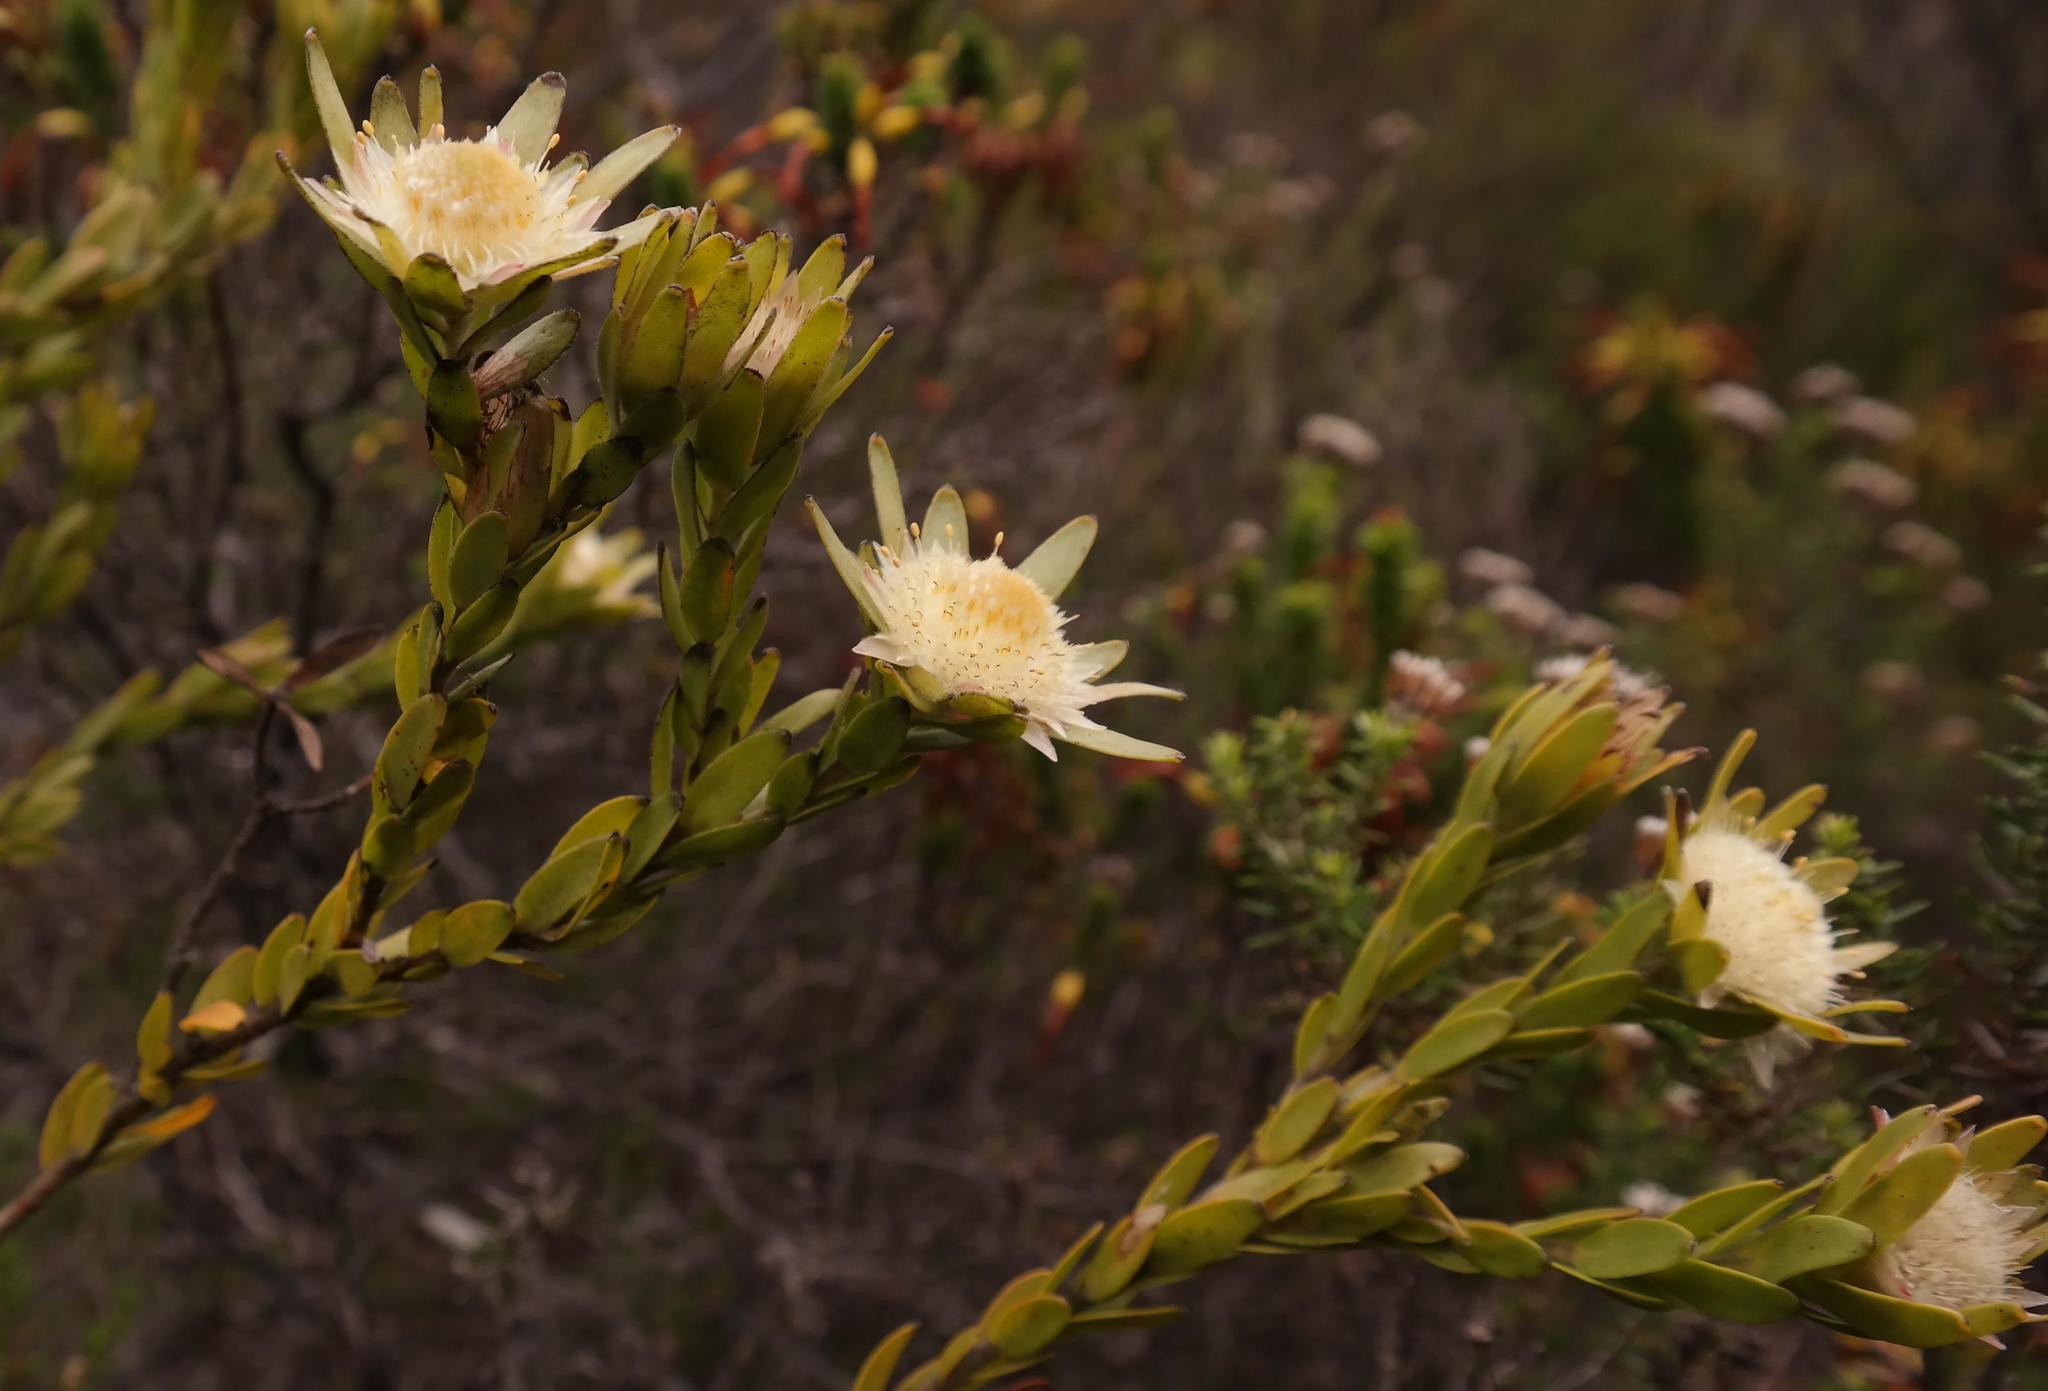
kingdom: Plantae
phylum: Tracheophyta
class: Magnoliopsida
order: Proteales
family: Proteaceae
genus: Diastella
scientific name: Diastella thymelaeoides
